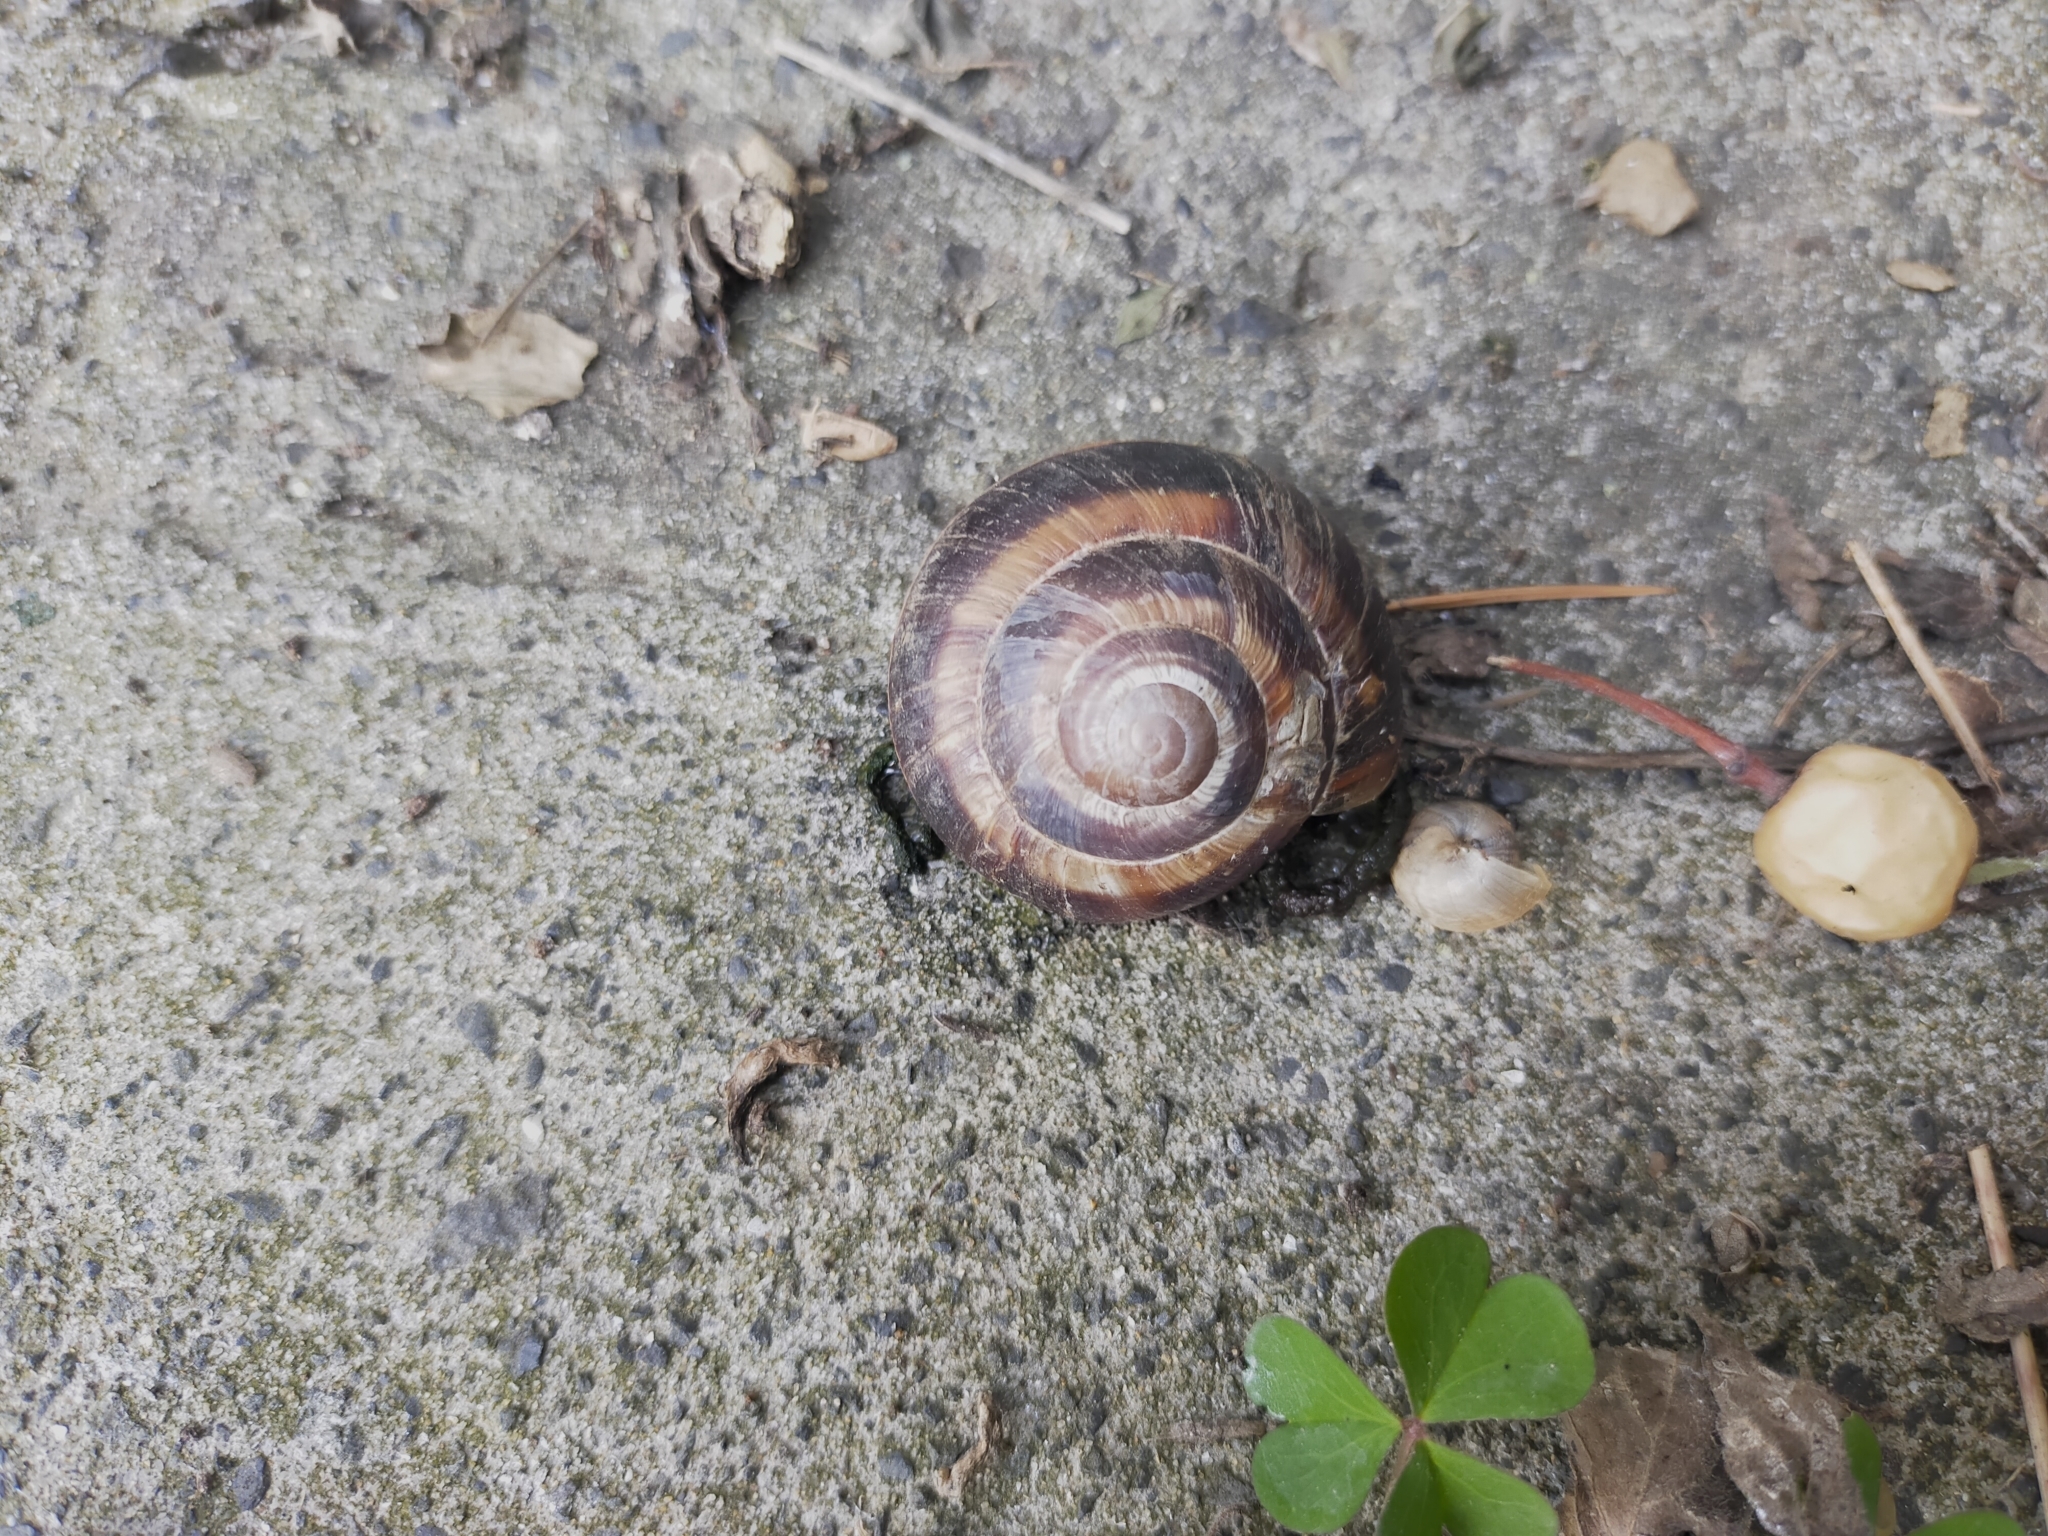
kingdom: Animalia
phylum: Mollusca
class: Gastropoda
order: Stylommatophora
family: Helicidae
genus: Helix
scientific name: Helix lucorum
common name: Turkish snail
